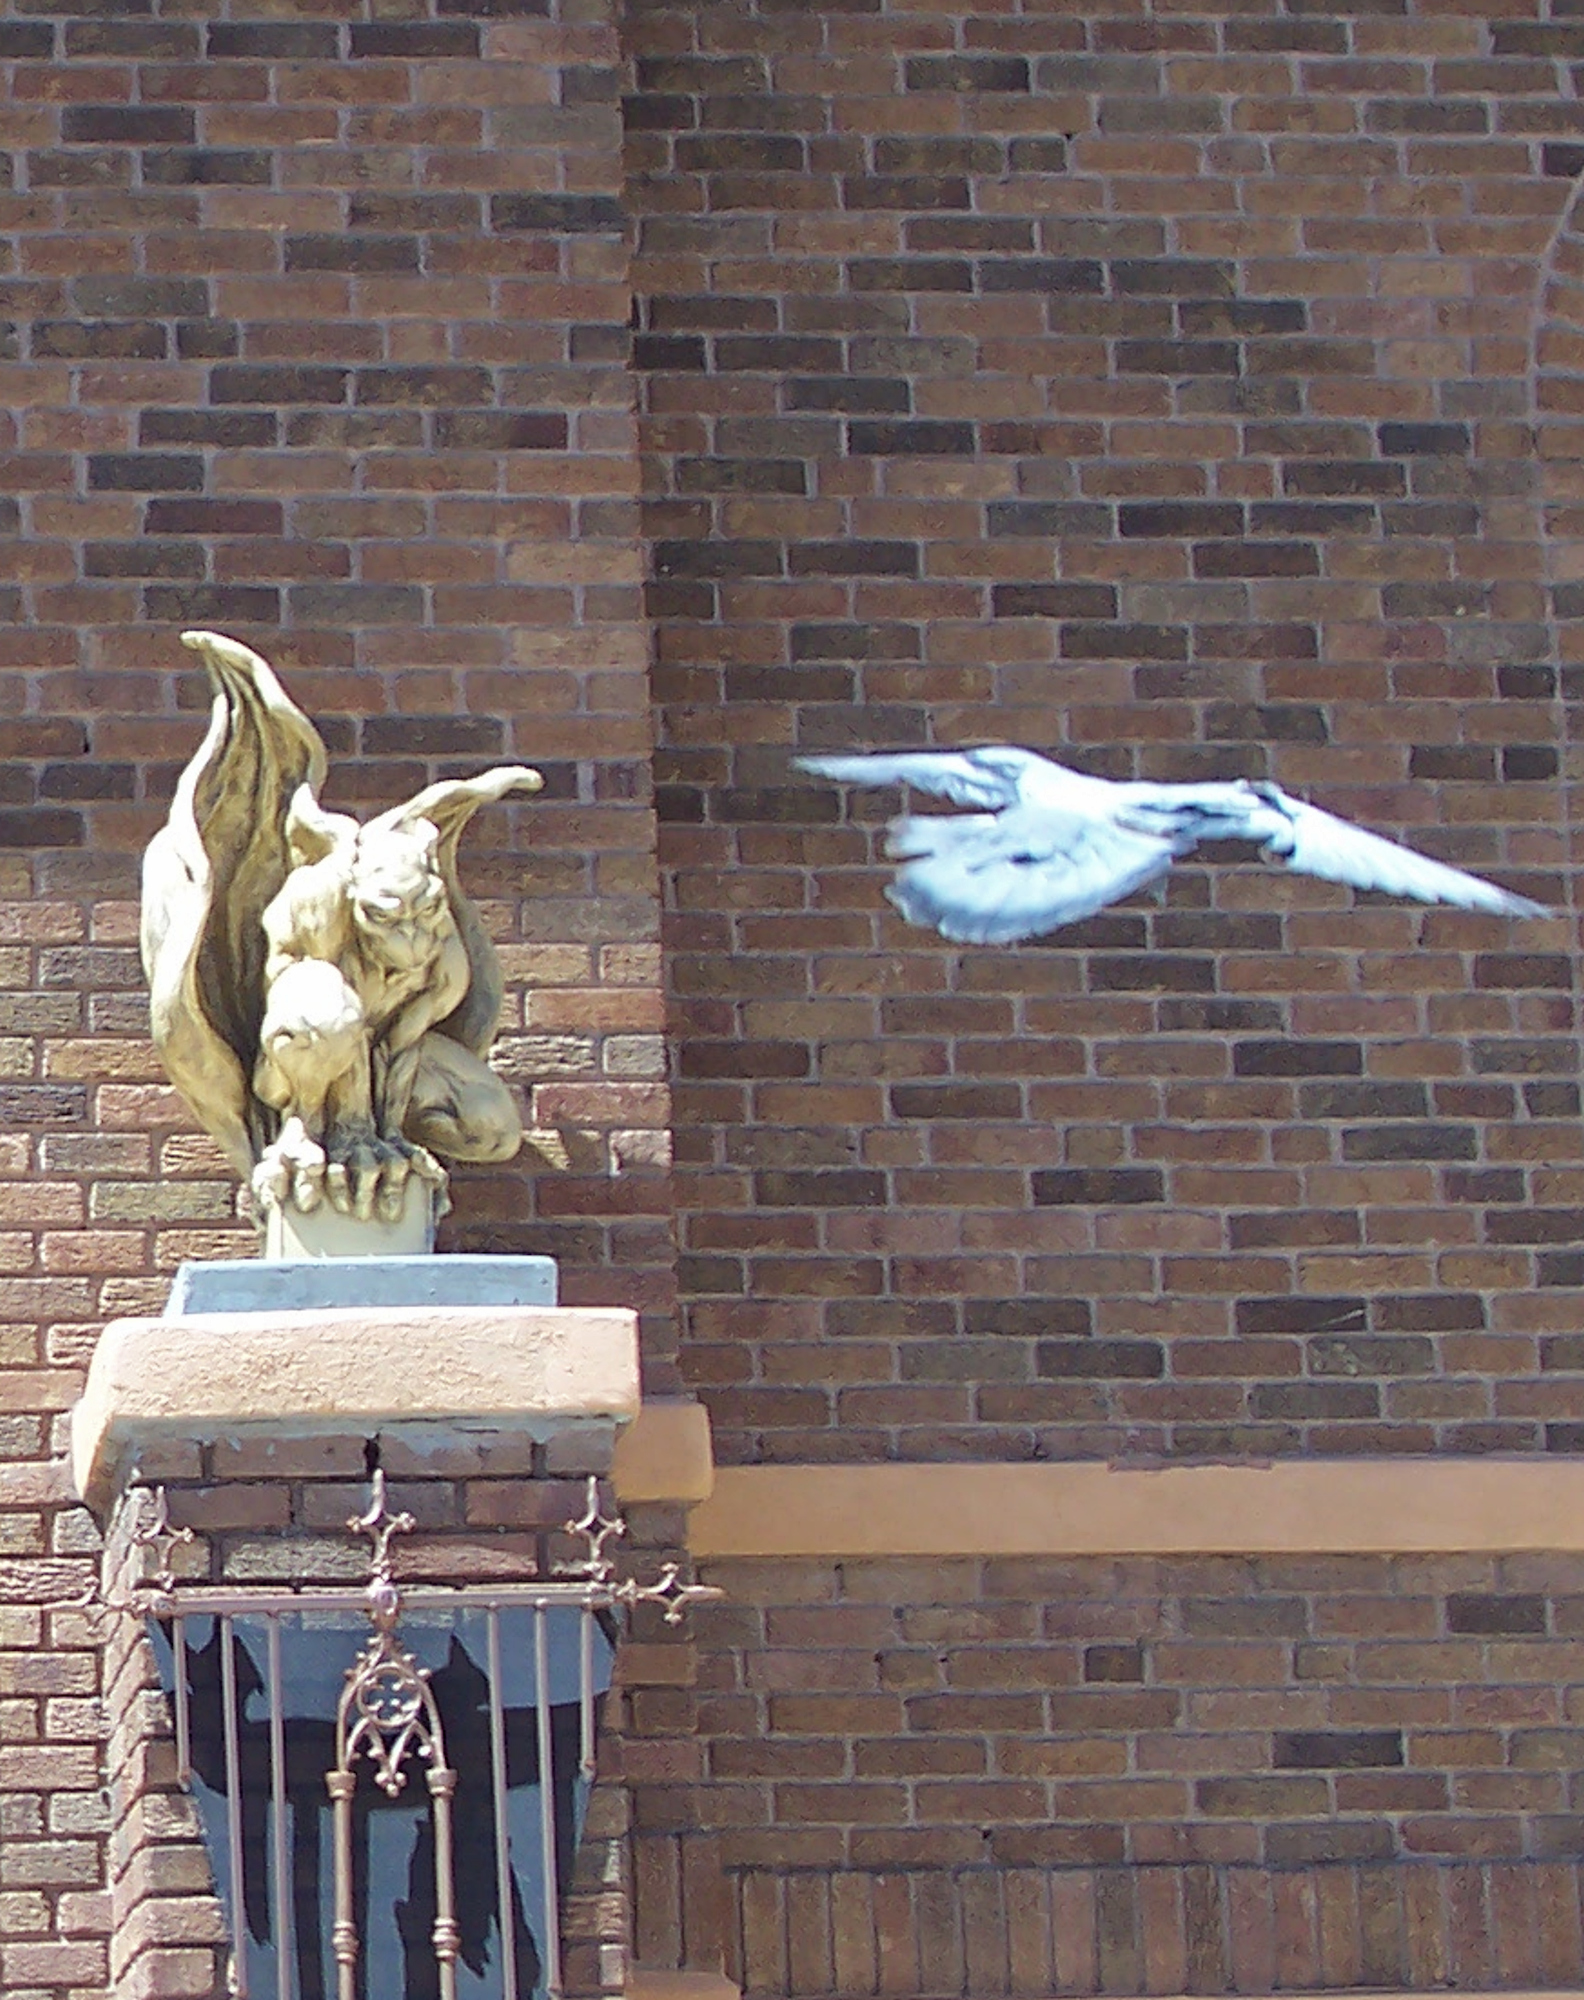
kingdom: Animalia
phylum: Chordata
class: Aves
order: Columbiformes
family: Columbidae
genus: Columba
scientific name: Columba livia
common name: Rock pigeon
